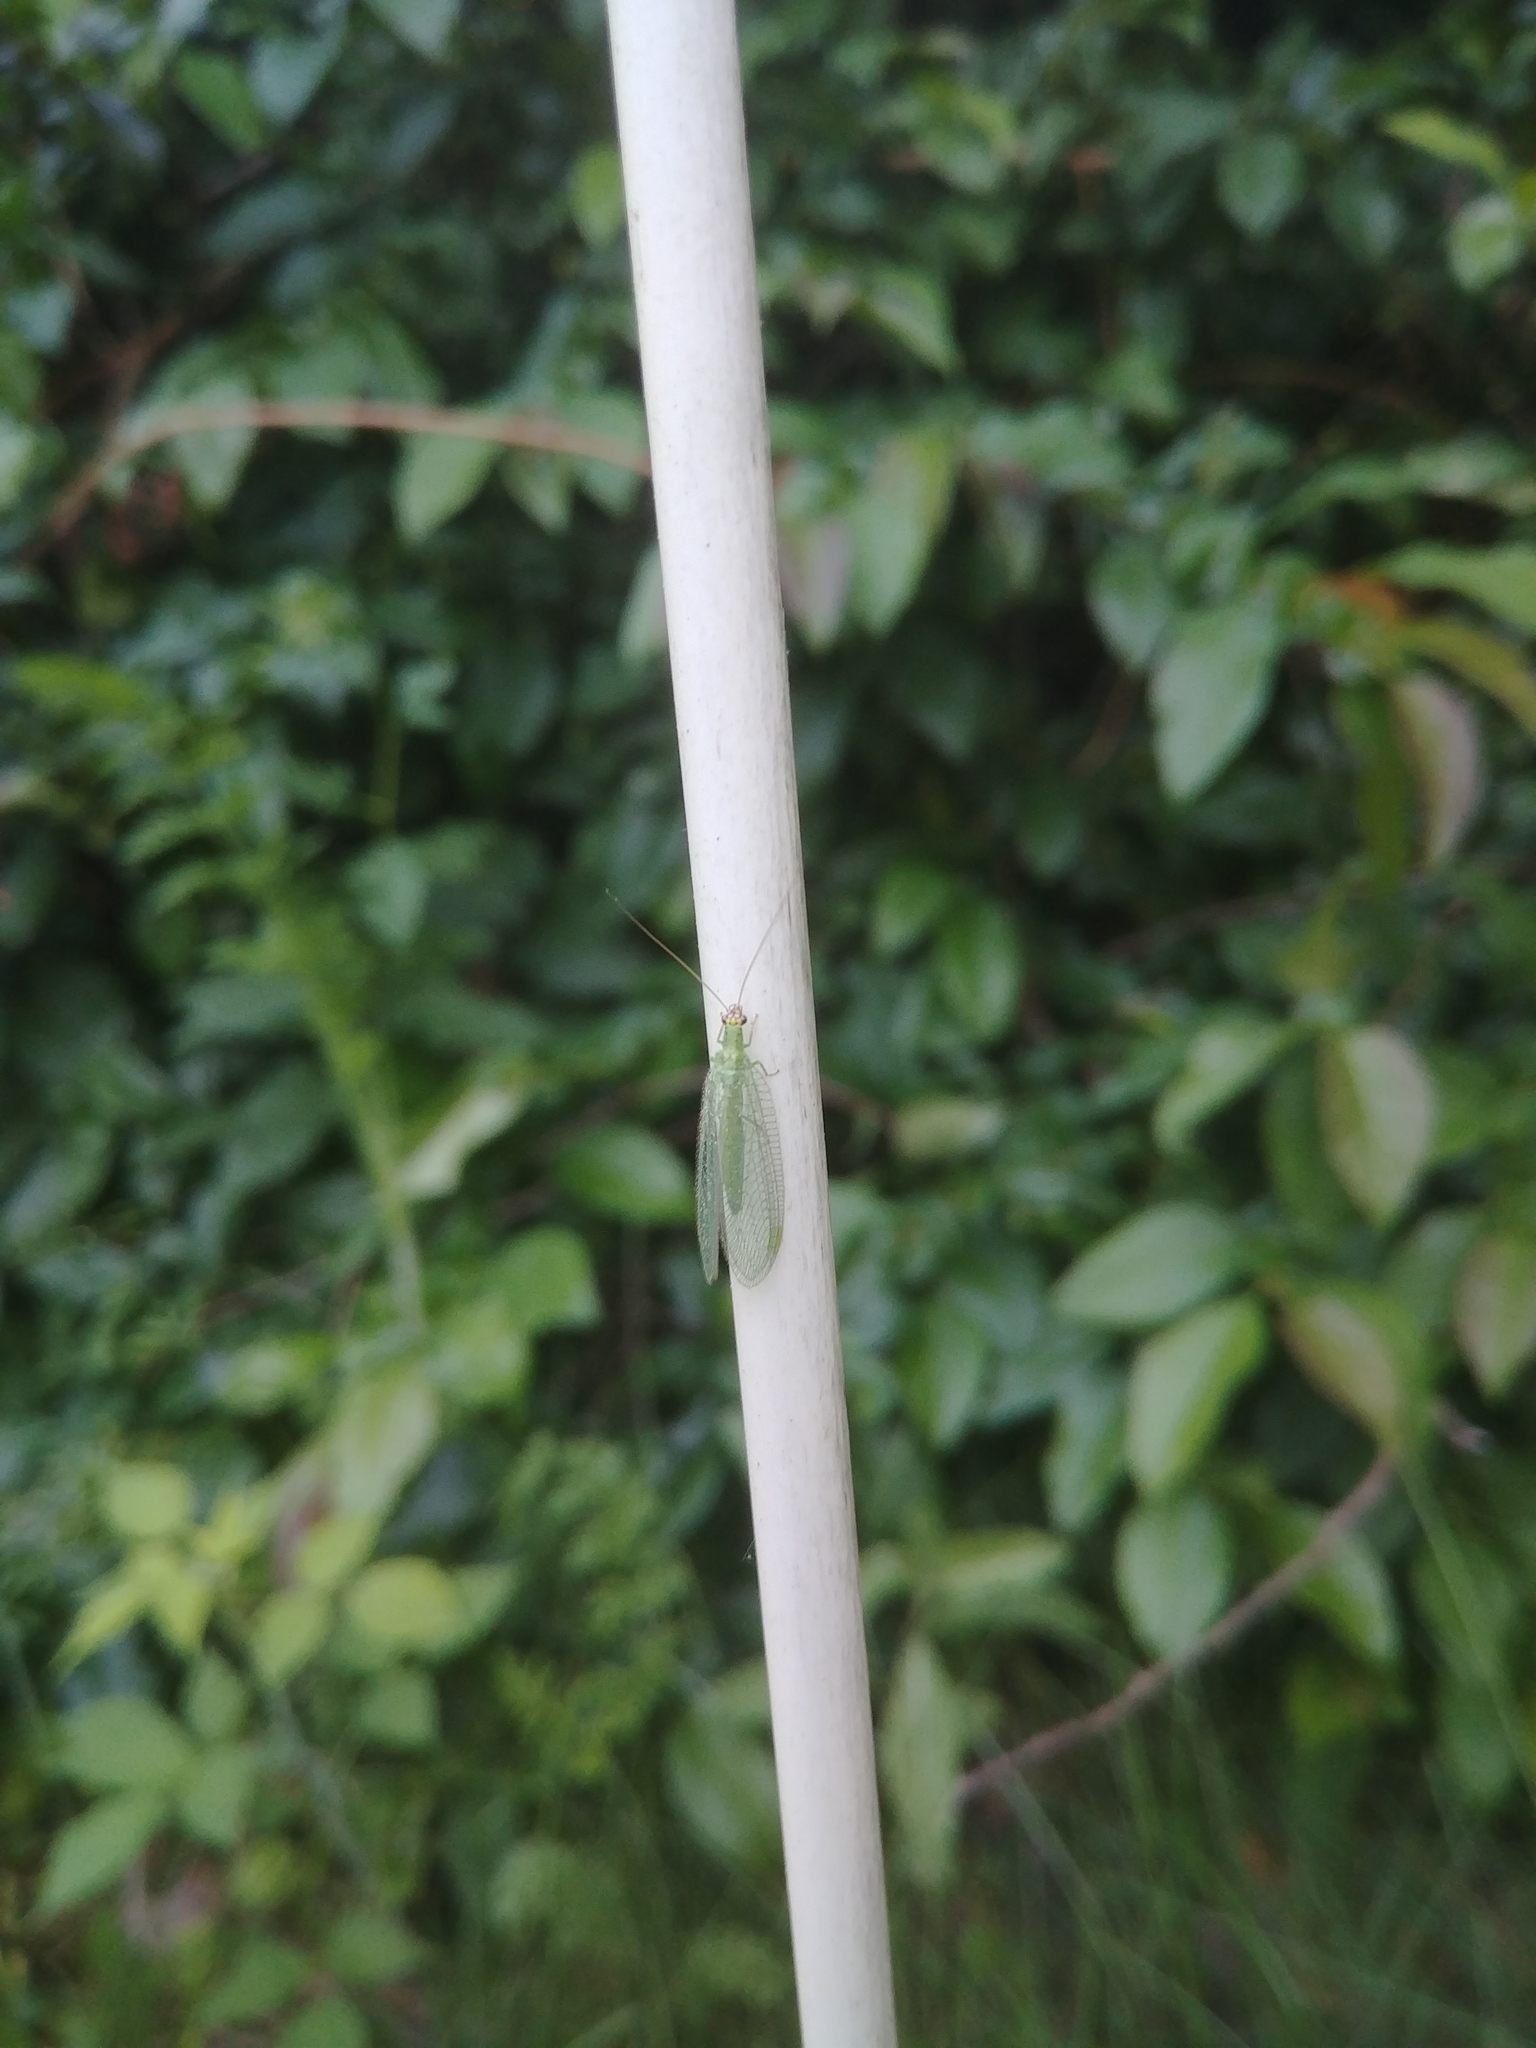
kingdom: Animalia
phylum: Arthropoda
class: Insecta
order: Neuroptera
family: Chrysopidae
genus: Chrysopa
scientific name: Chrysopa oculata
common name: Golden-eyed lacewing
